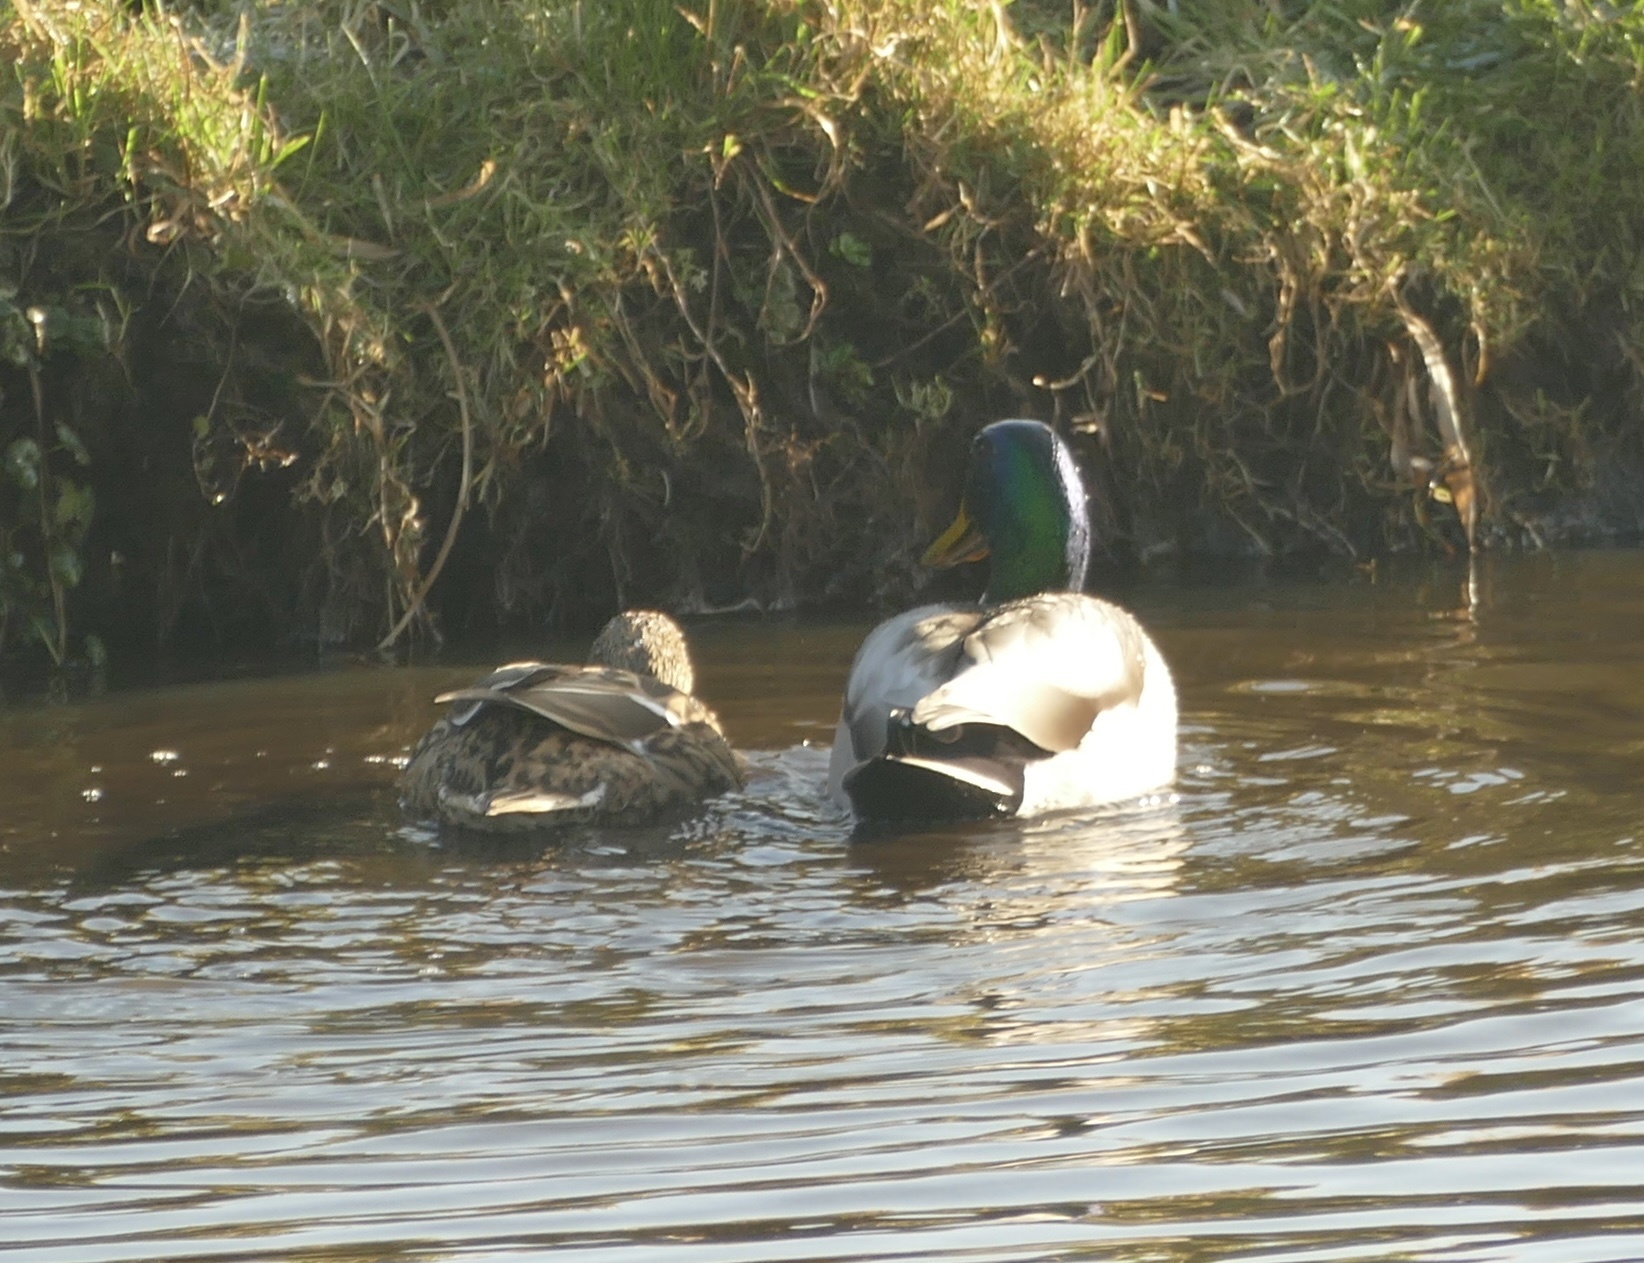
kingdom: Animalia
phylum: Chordata
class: Aves
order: Anseriformes
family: Anatidae
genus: Anas
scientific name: Anas platyrhynchos
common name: Mallard
